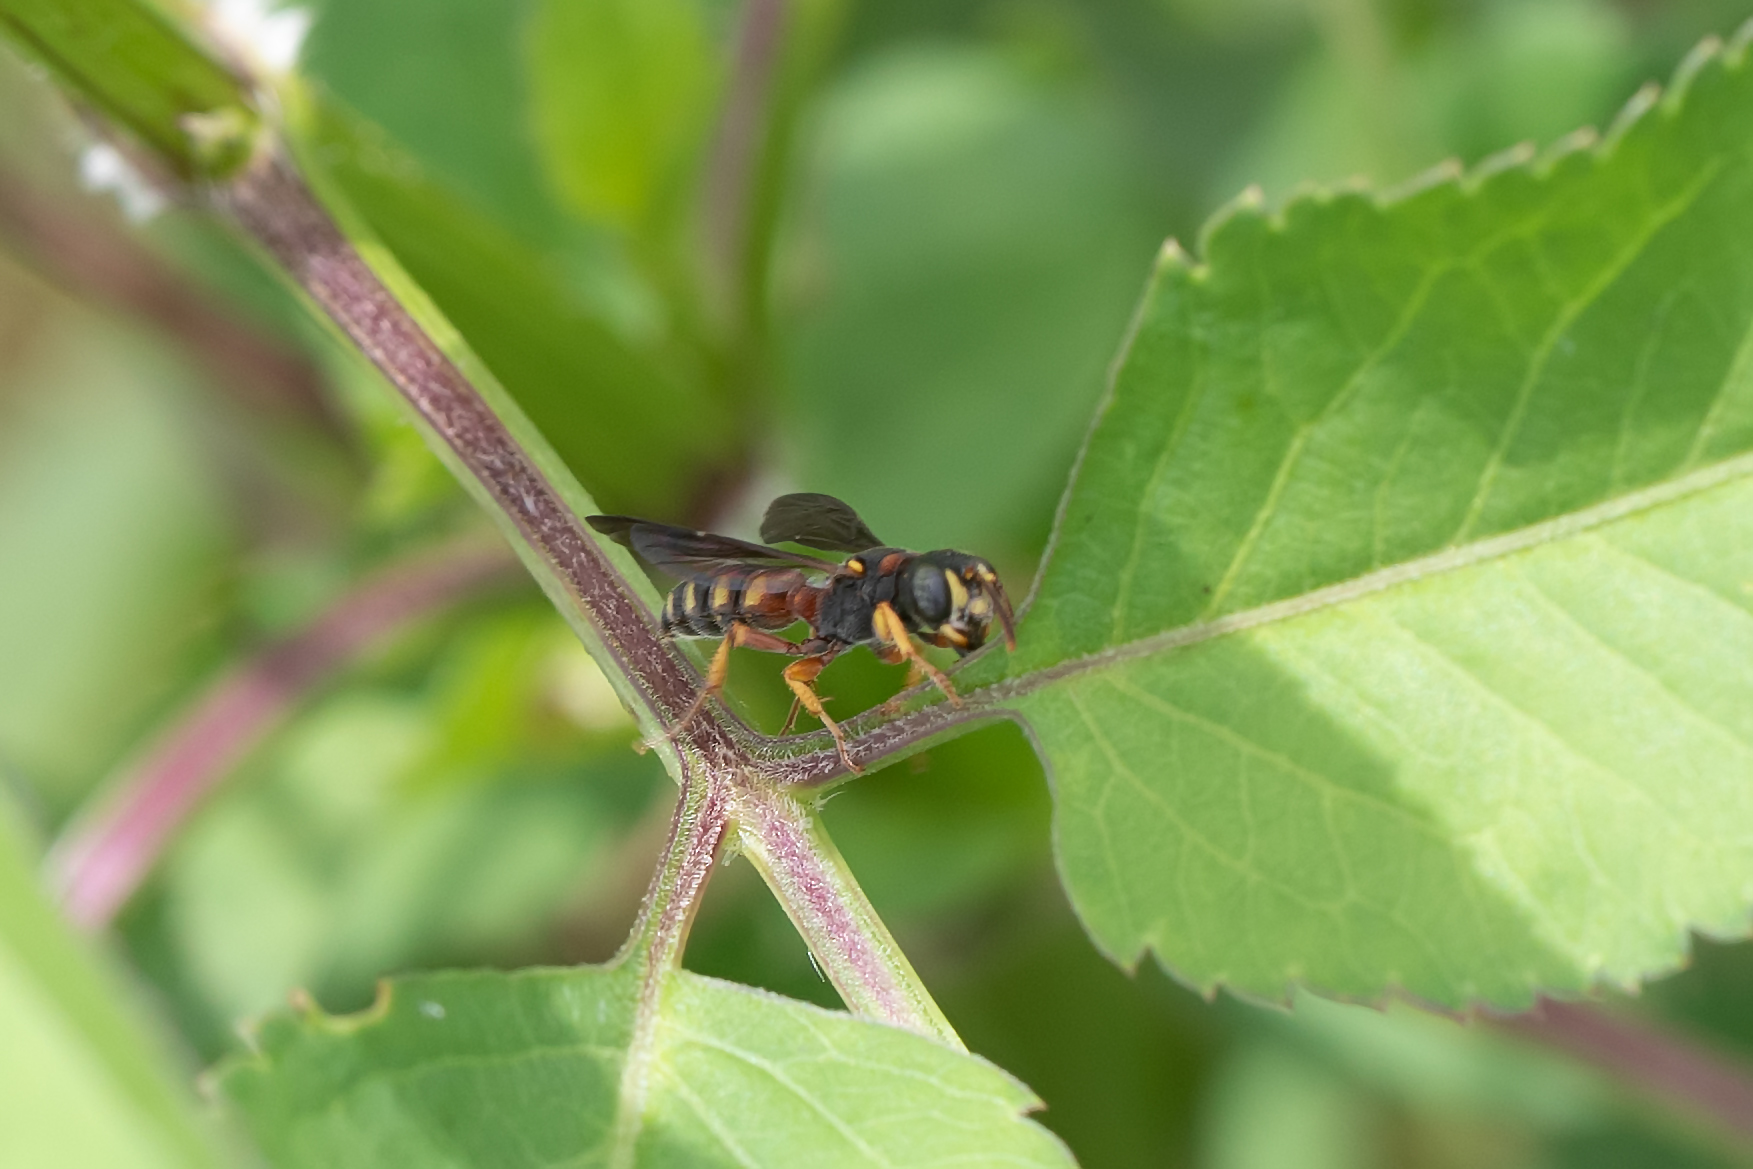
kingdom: Animalia
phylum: Arthropoda
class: Insecta
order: Hymenoptera
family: Crabronidae
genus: Cerceris
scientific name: Cerceris blakei
